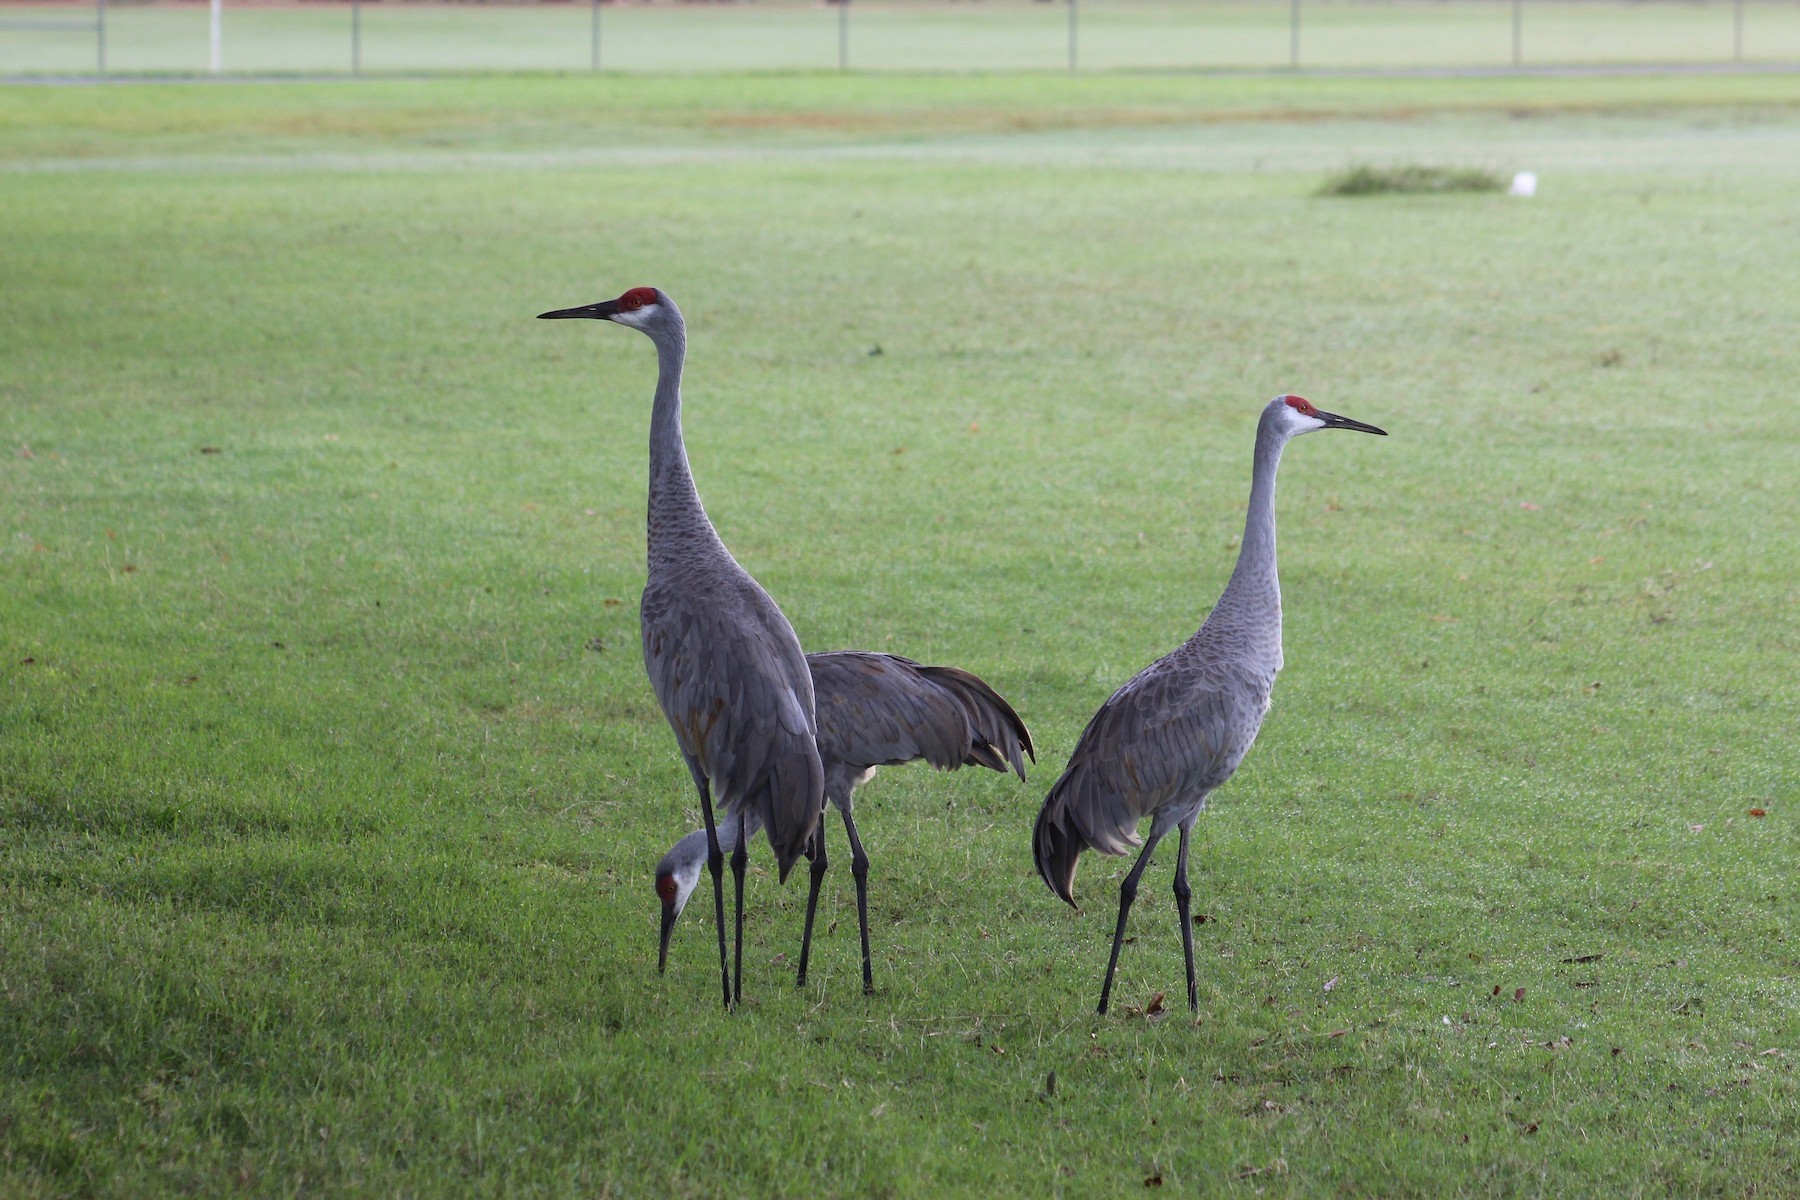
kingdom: Animalia
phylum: Chordata
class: Aves
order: Gruiformes
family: Gruidae
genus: Grus
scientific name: Grus canadensis
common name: Sandhill crane
